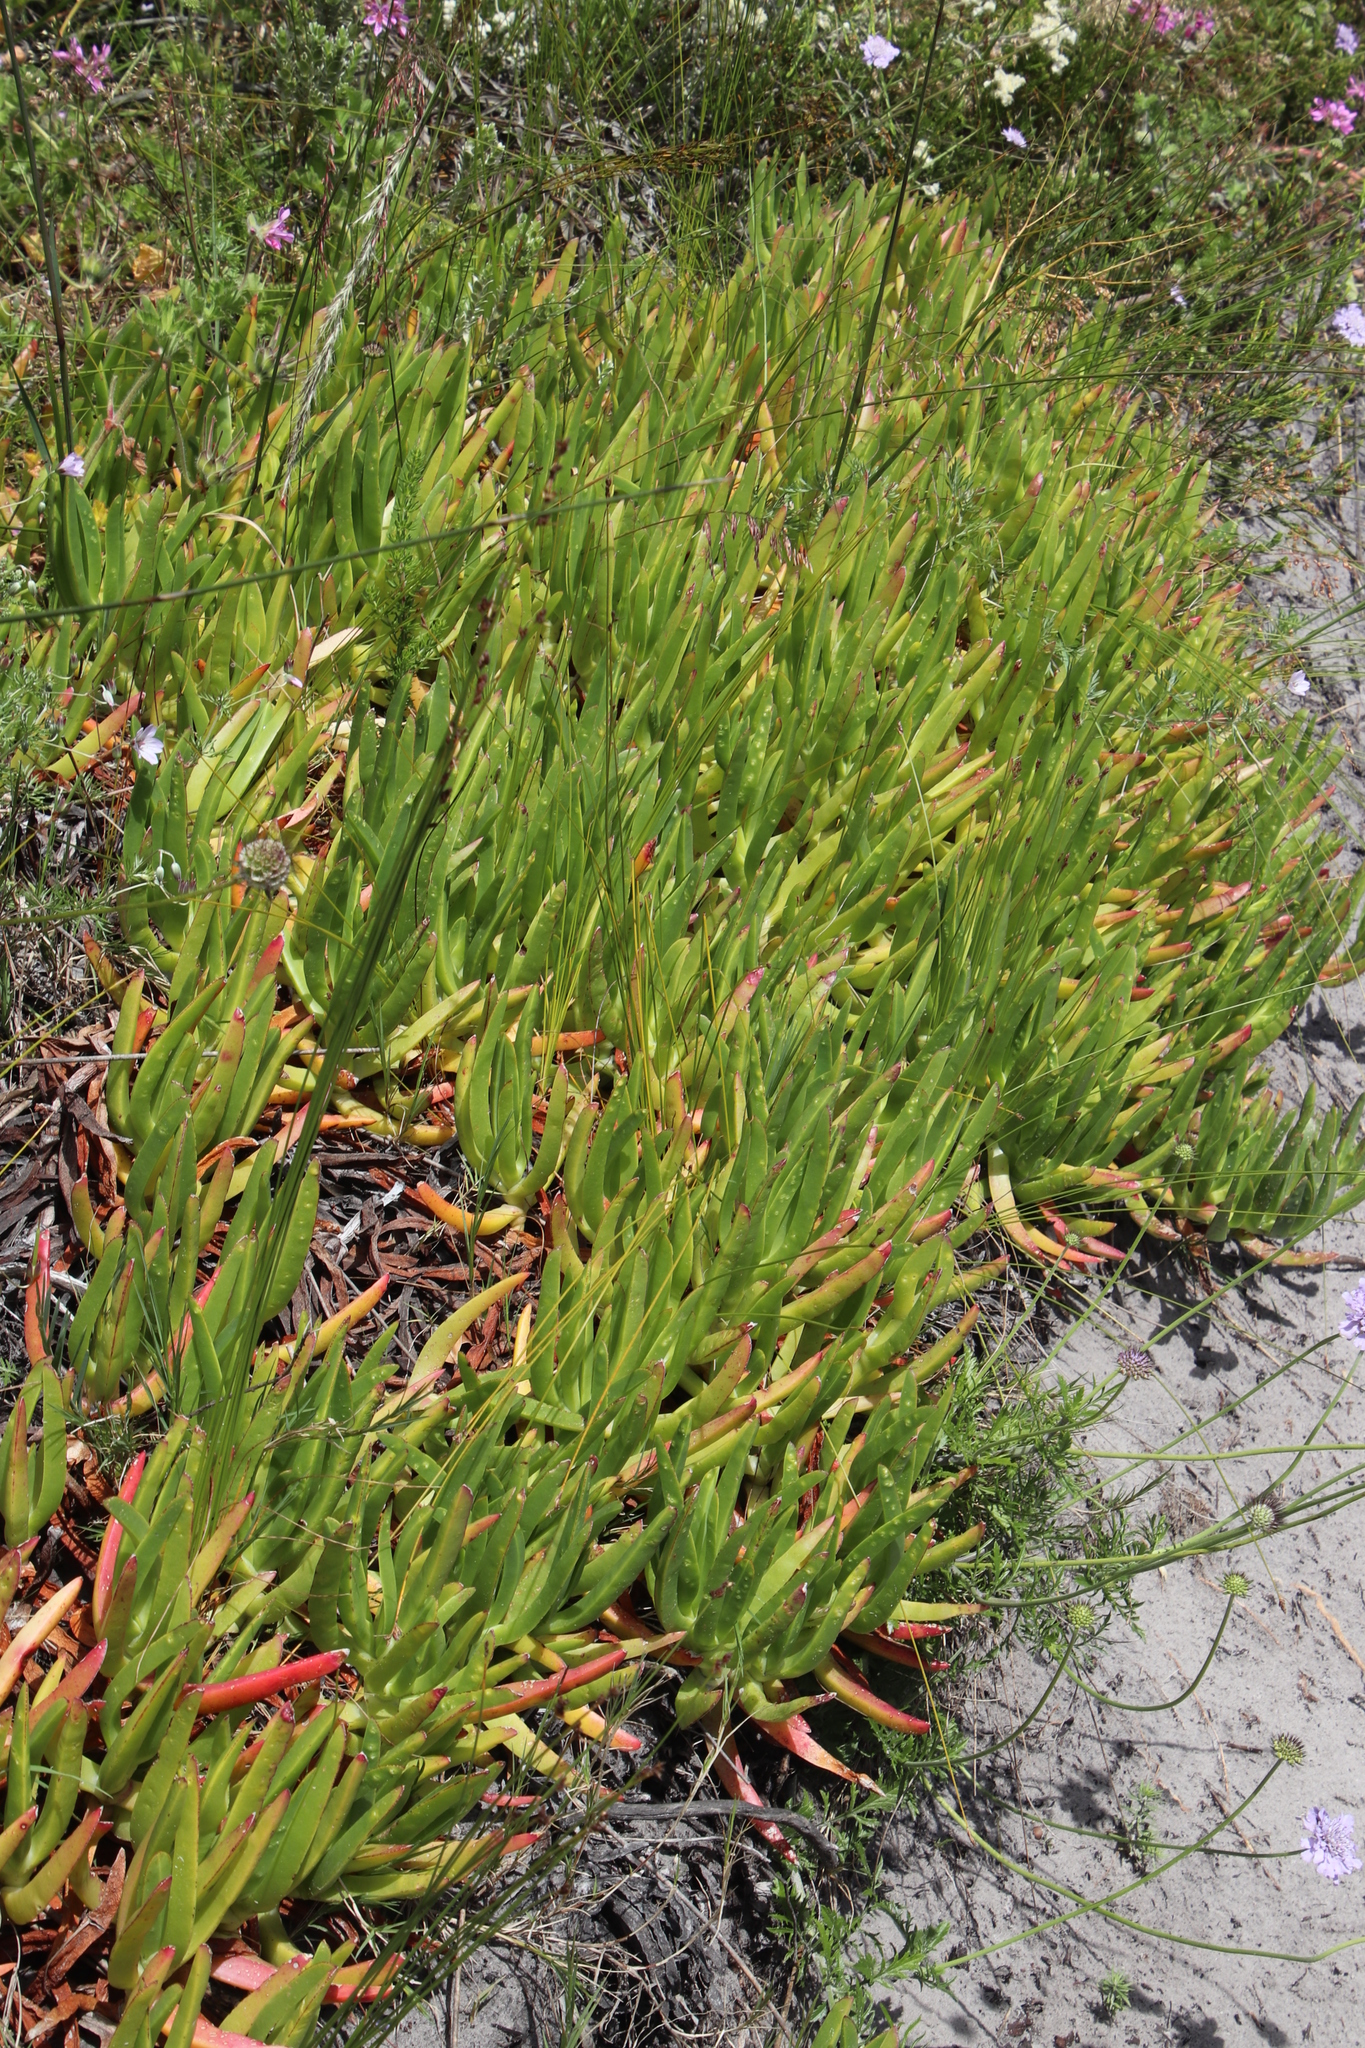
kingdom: Plantae
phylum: Tracheophyta
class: Magnoliopsida
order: Caryophyllales
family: Aizoaceae
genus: Carpobrotus
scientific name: Carpobrotus acinaciformis
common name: Sally-my-handsome
